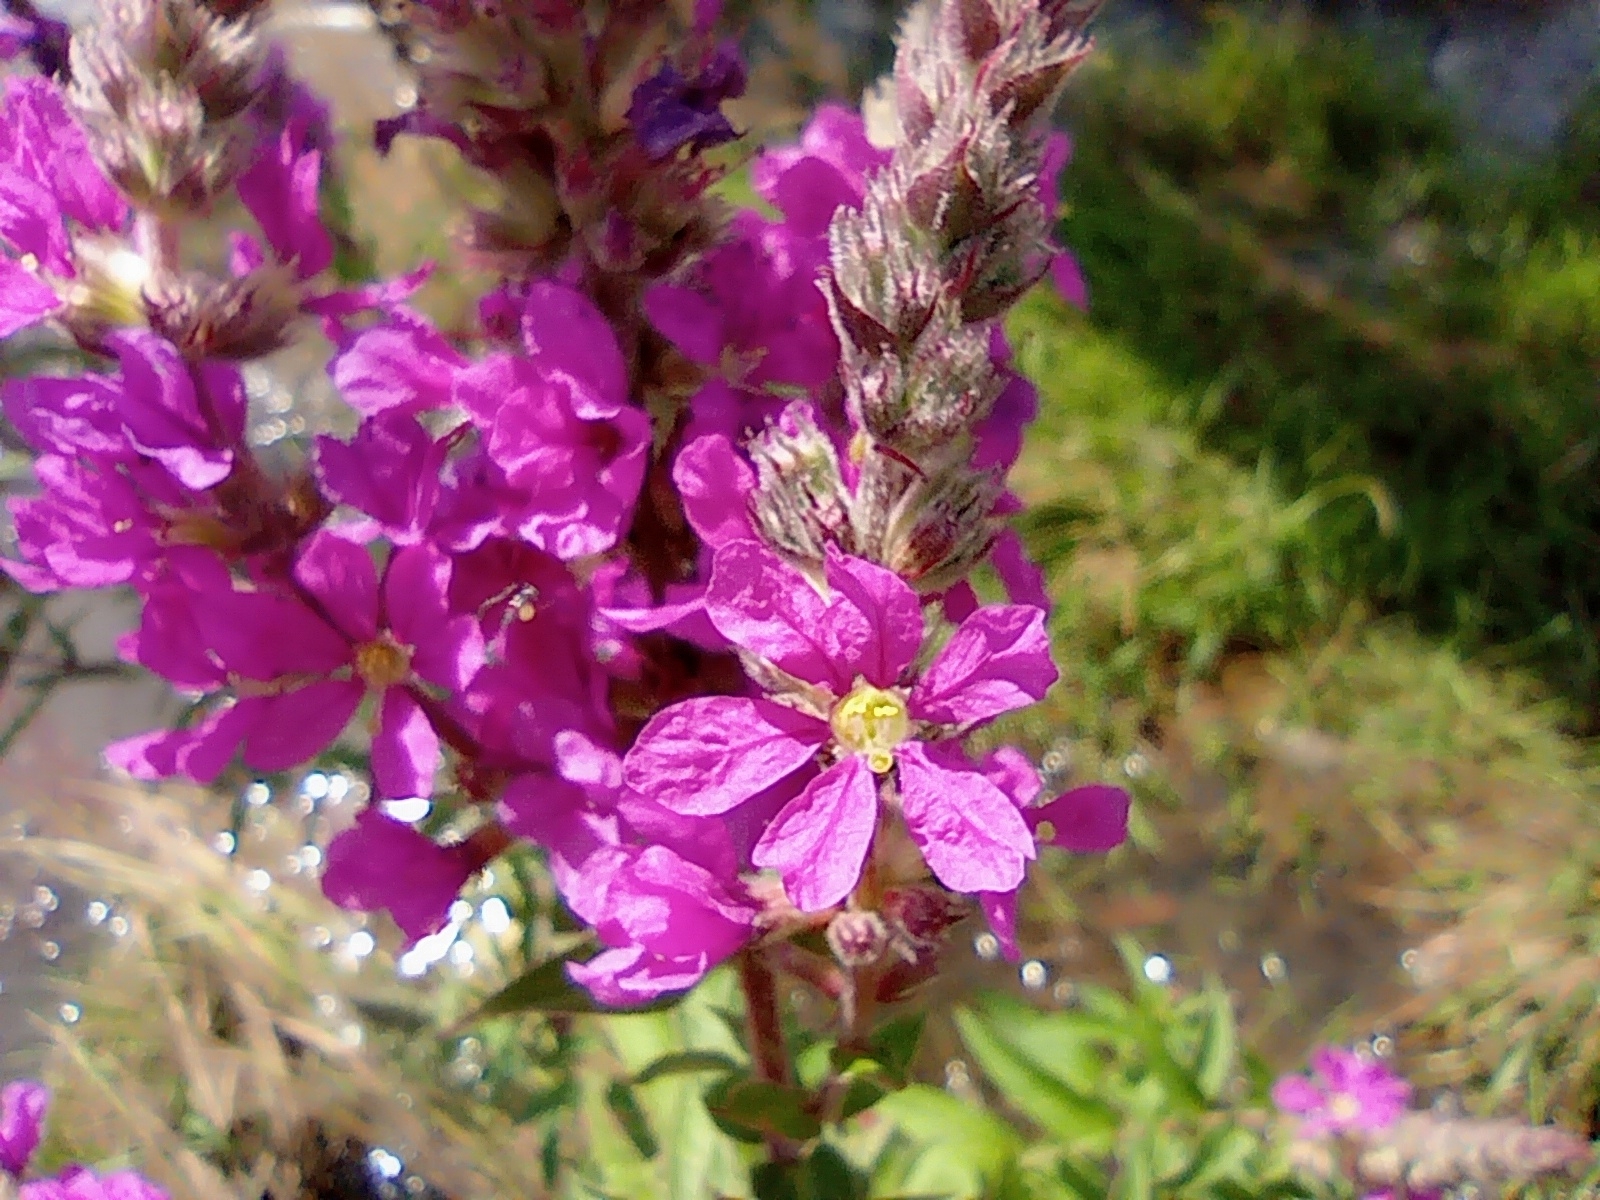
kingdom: Plantae
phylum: Tracheophyta
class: Magnoliopsida
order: Myrtales
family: Lythraceae
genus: Lythrum
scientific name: Lythrum salicaria
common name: Purple loosestrife
